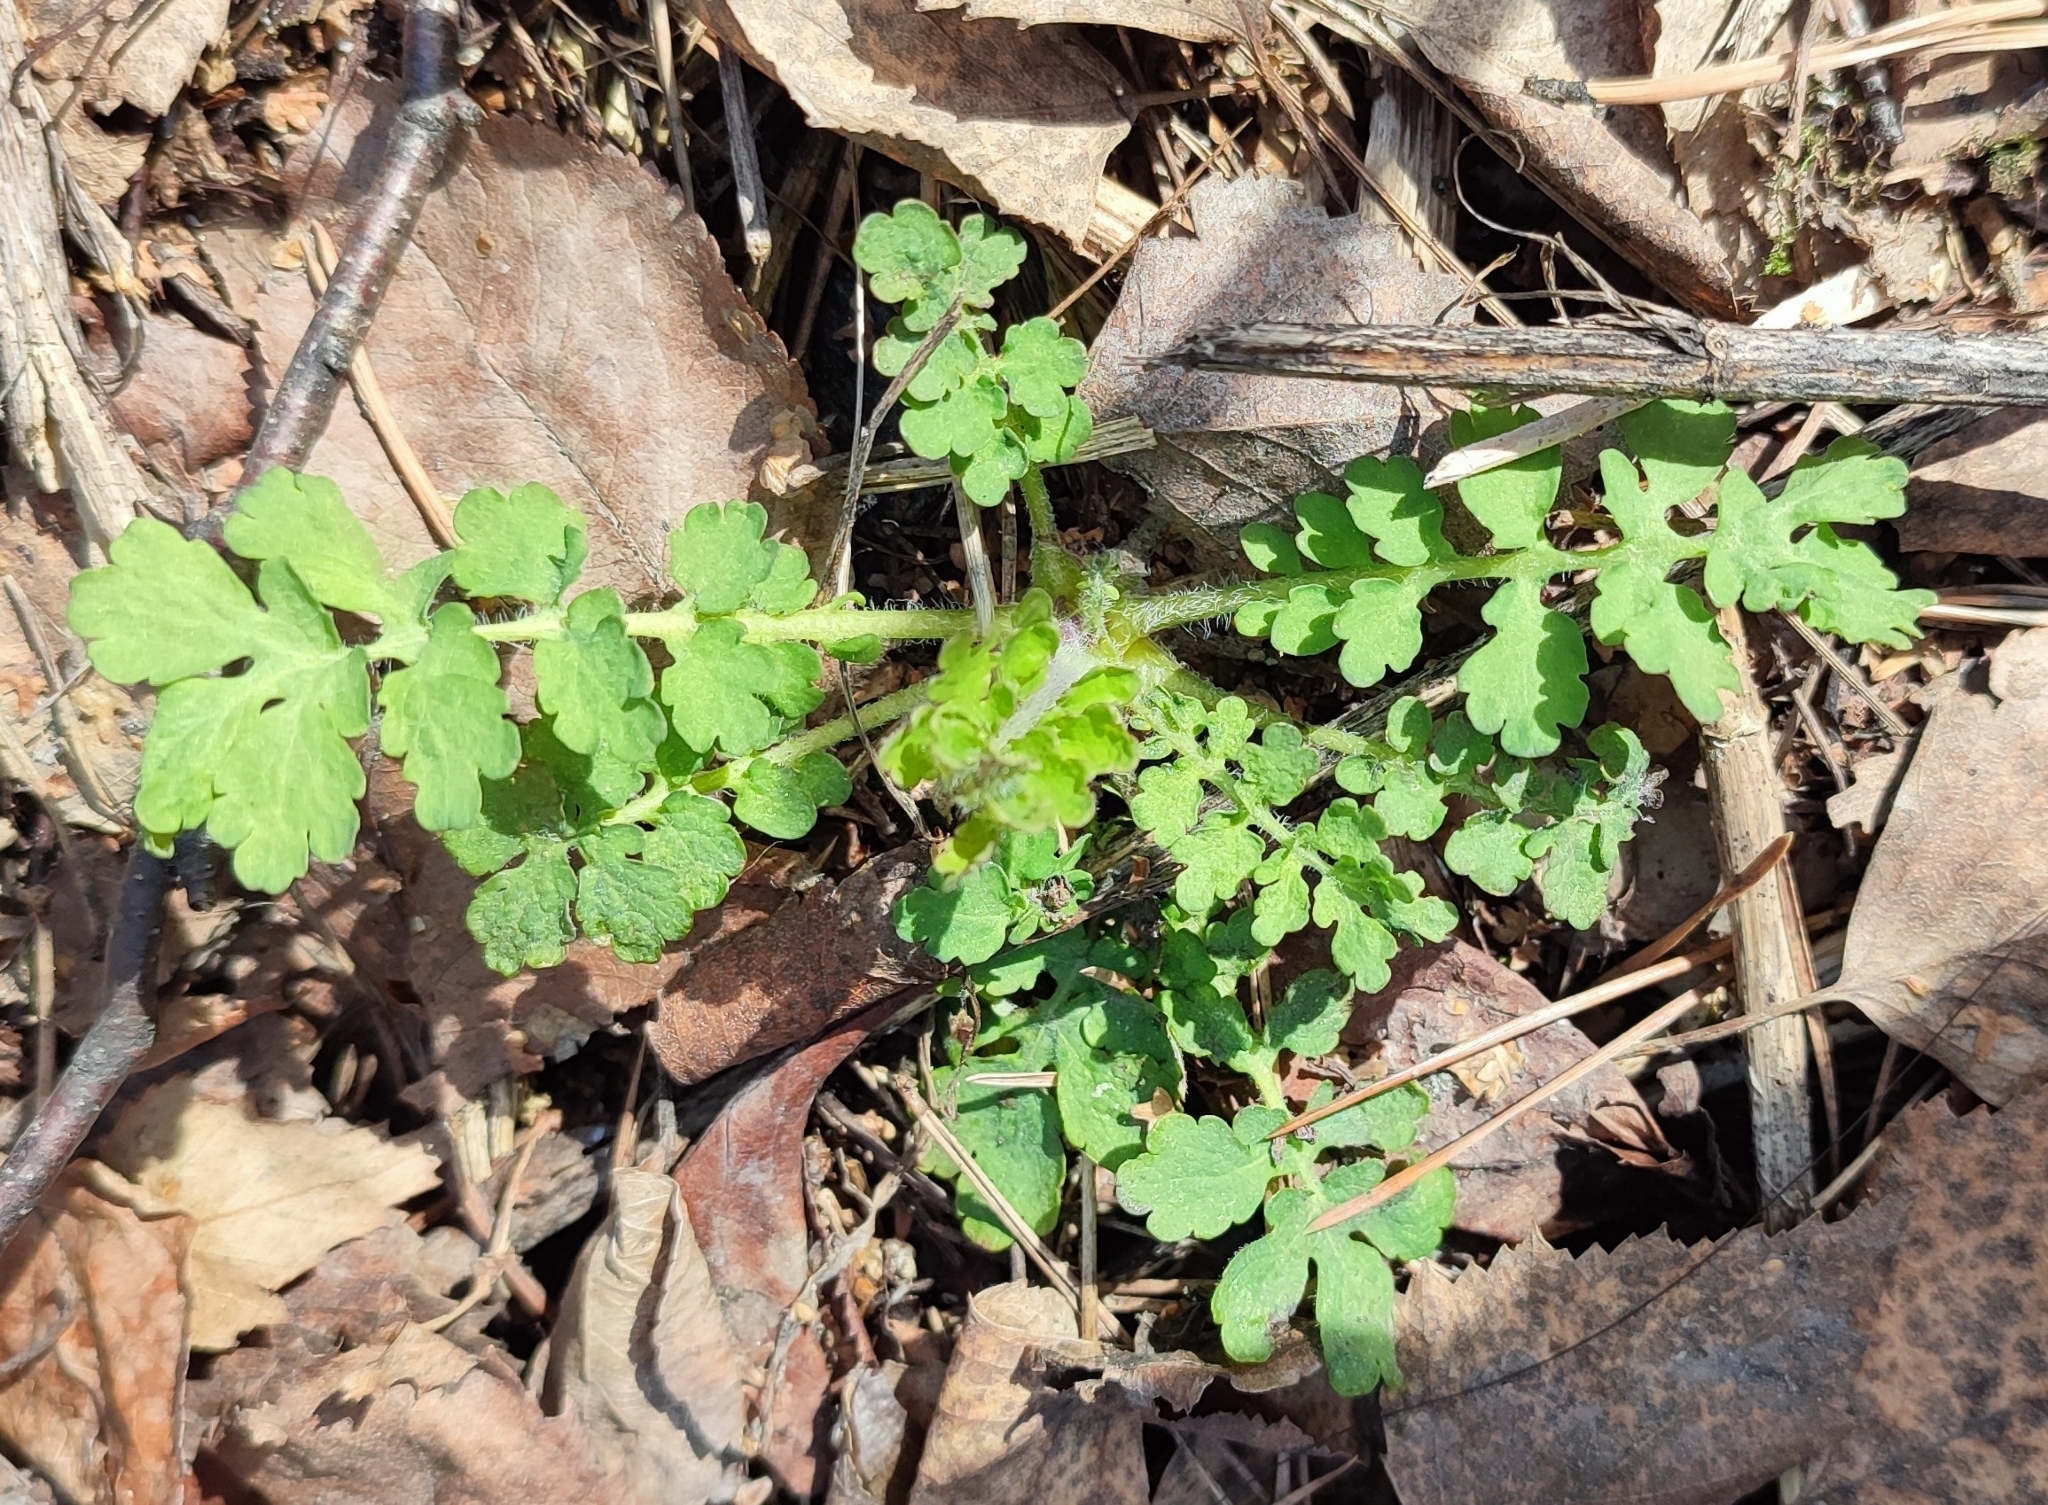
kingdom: Plantae
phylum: Tracheophyta
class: Magnoliopsida
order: Ranunculales
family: Papaveraceae
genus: Chelidonium
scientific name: Chelidonium majus
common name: Greater celandine
